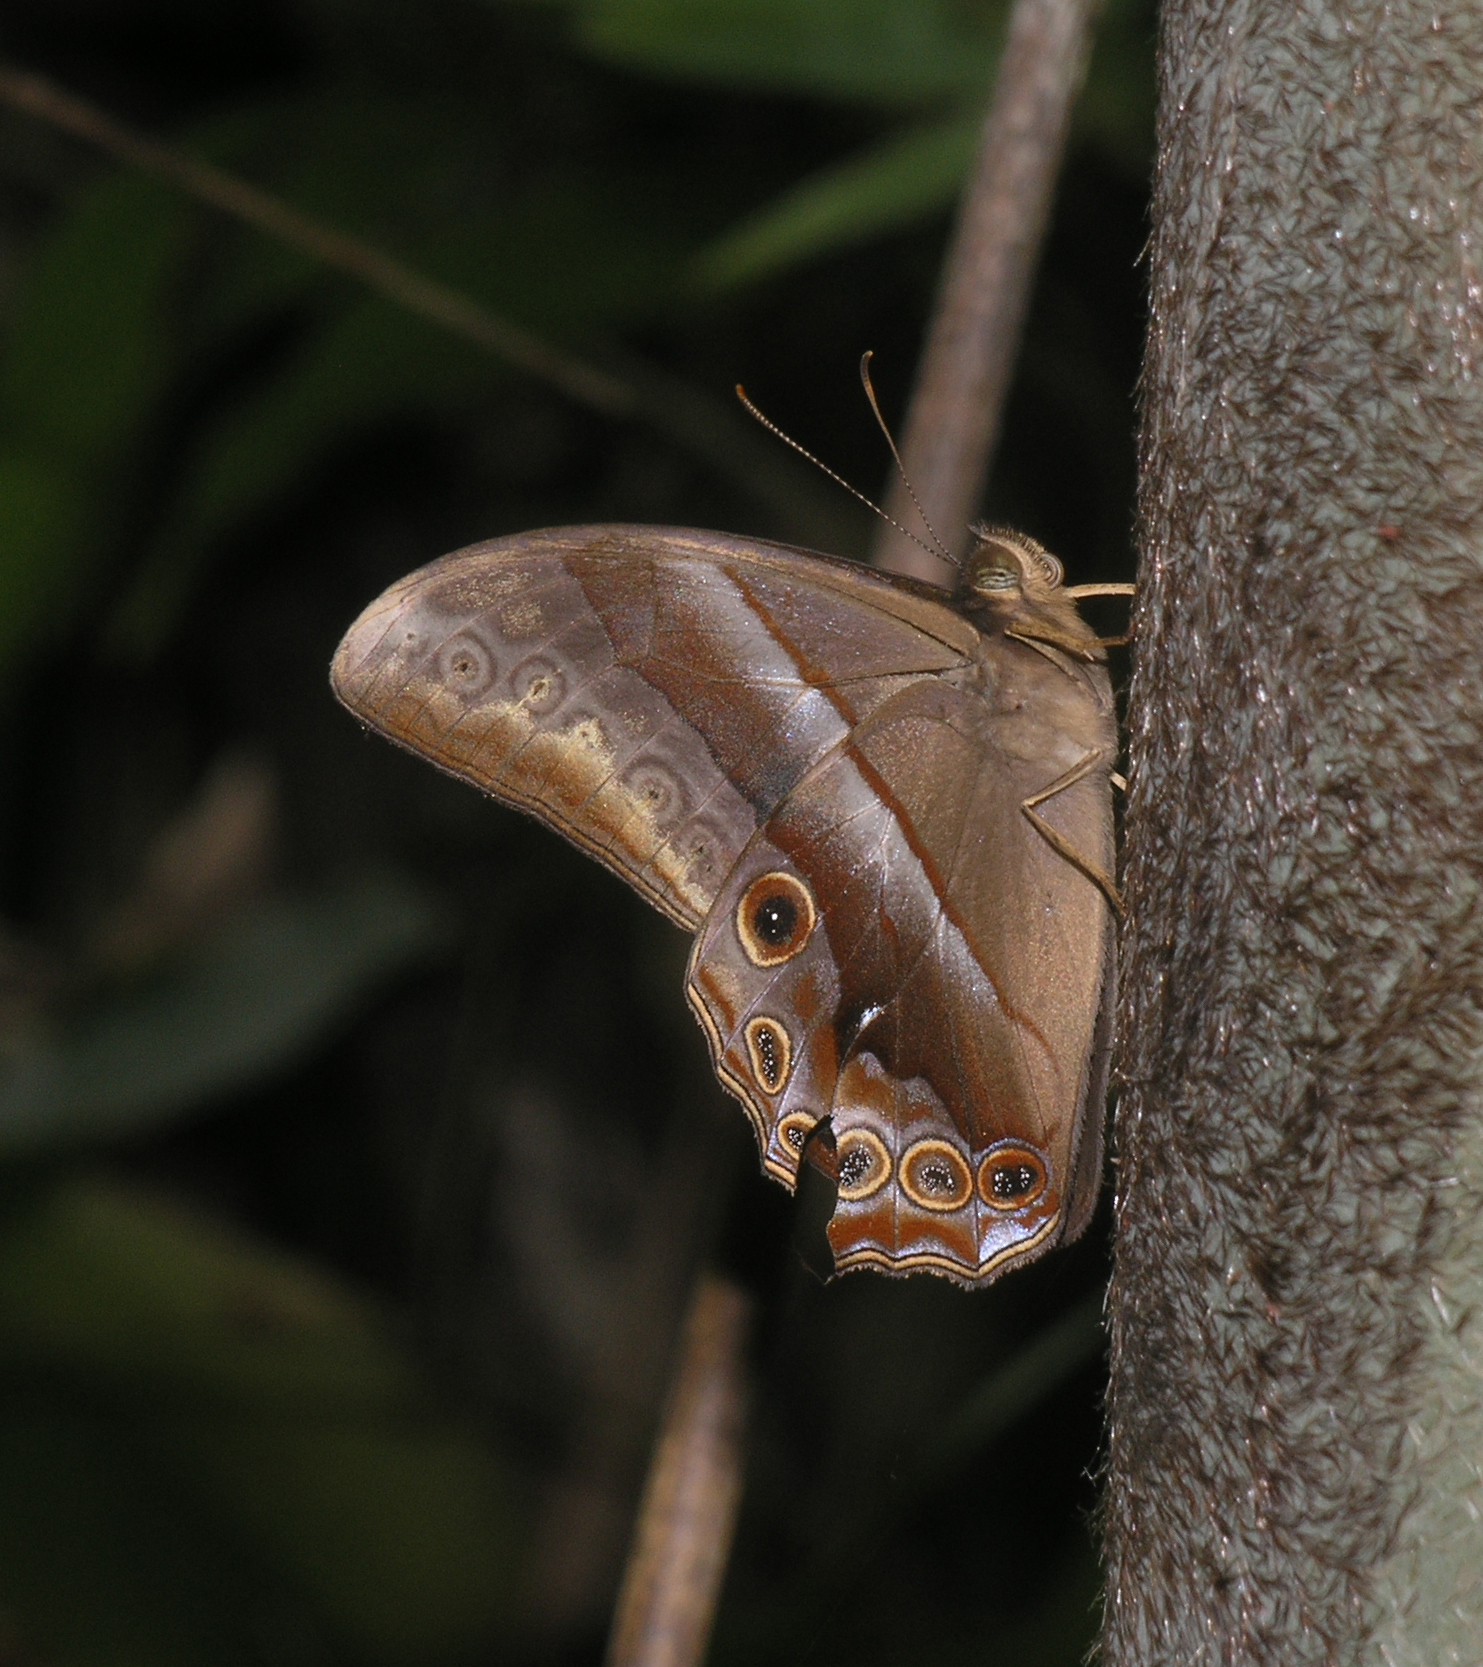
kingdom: Animalia
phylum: Arthropoda
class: Insecta
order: Lepidoptera
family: Nymphalidae
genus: Lethe
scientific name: Lethe mekara
